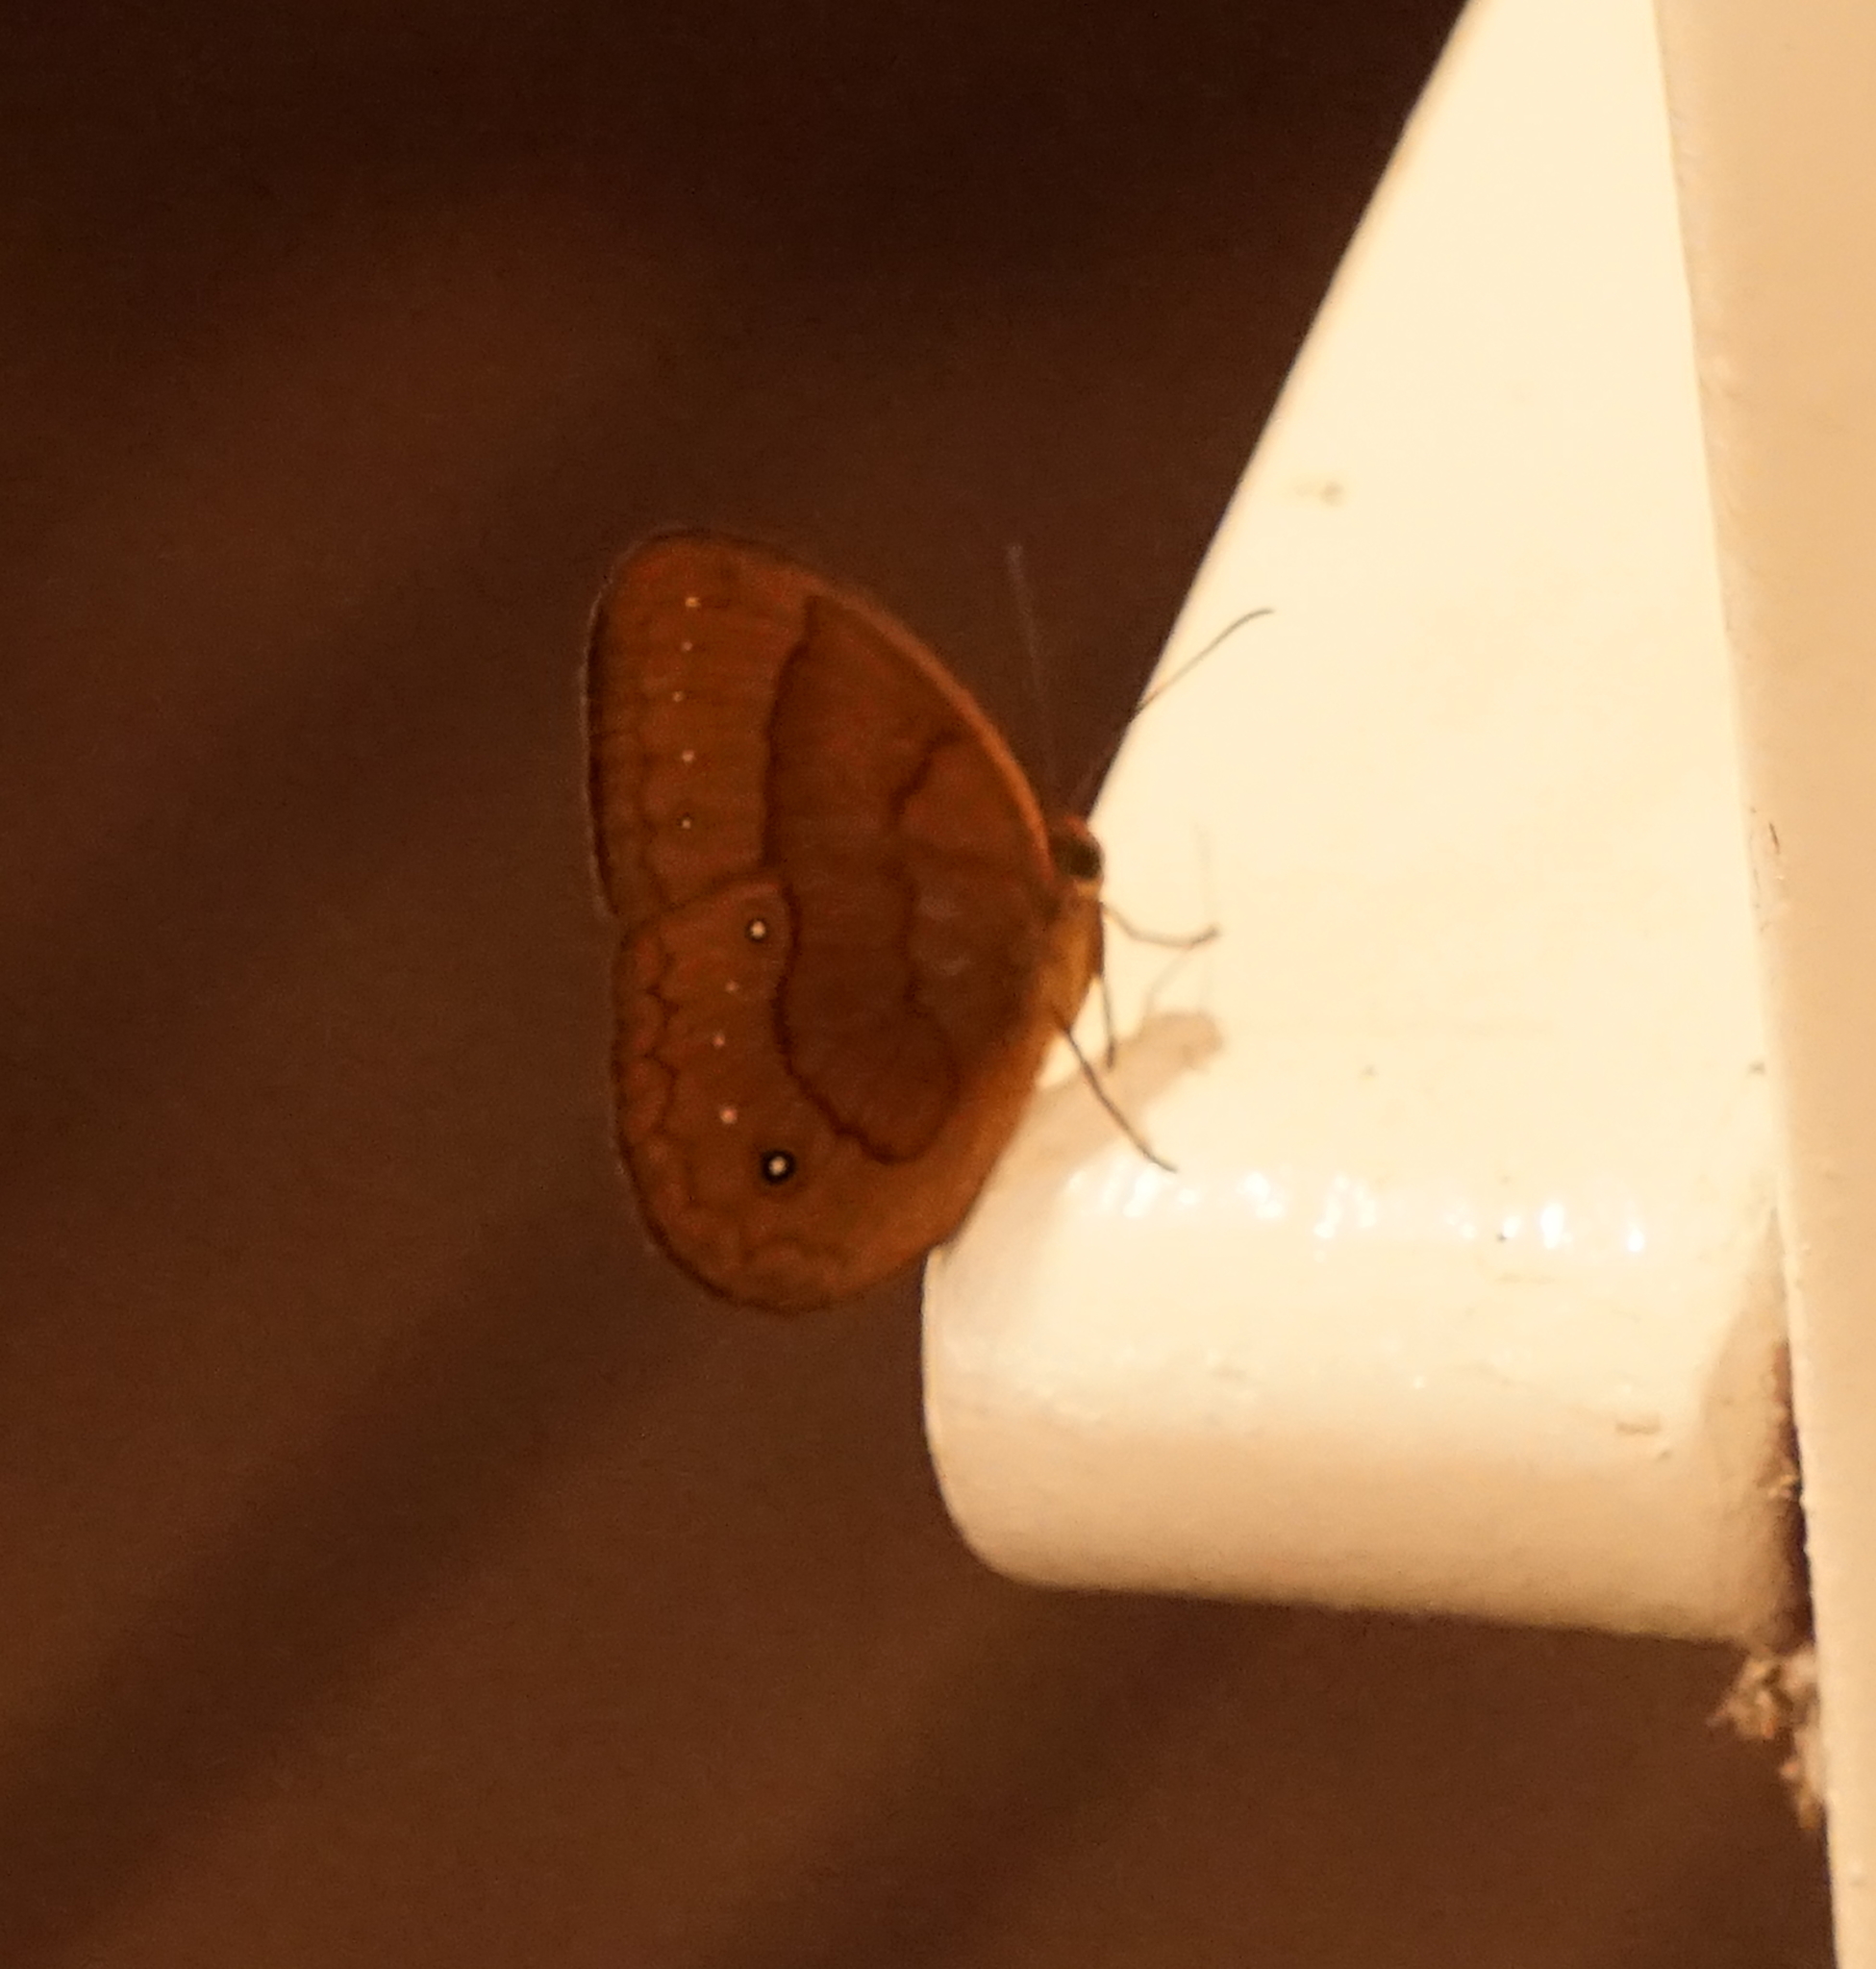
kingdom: Animalia
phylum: Arthropoda
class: Insecta
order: Lepidoptera
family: Nymphalidae
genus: Faunis
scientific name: Faunis gracilis
